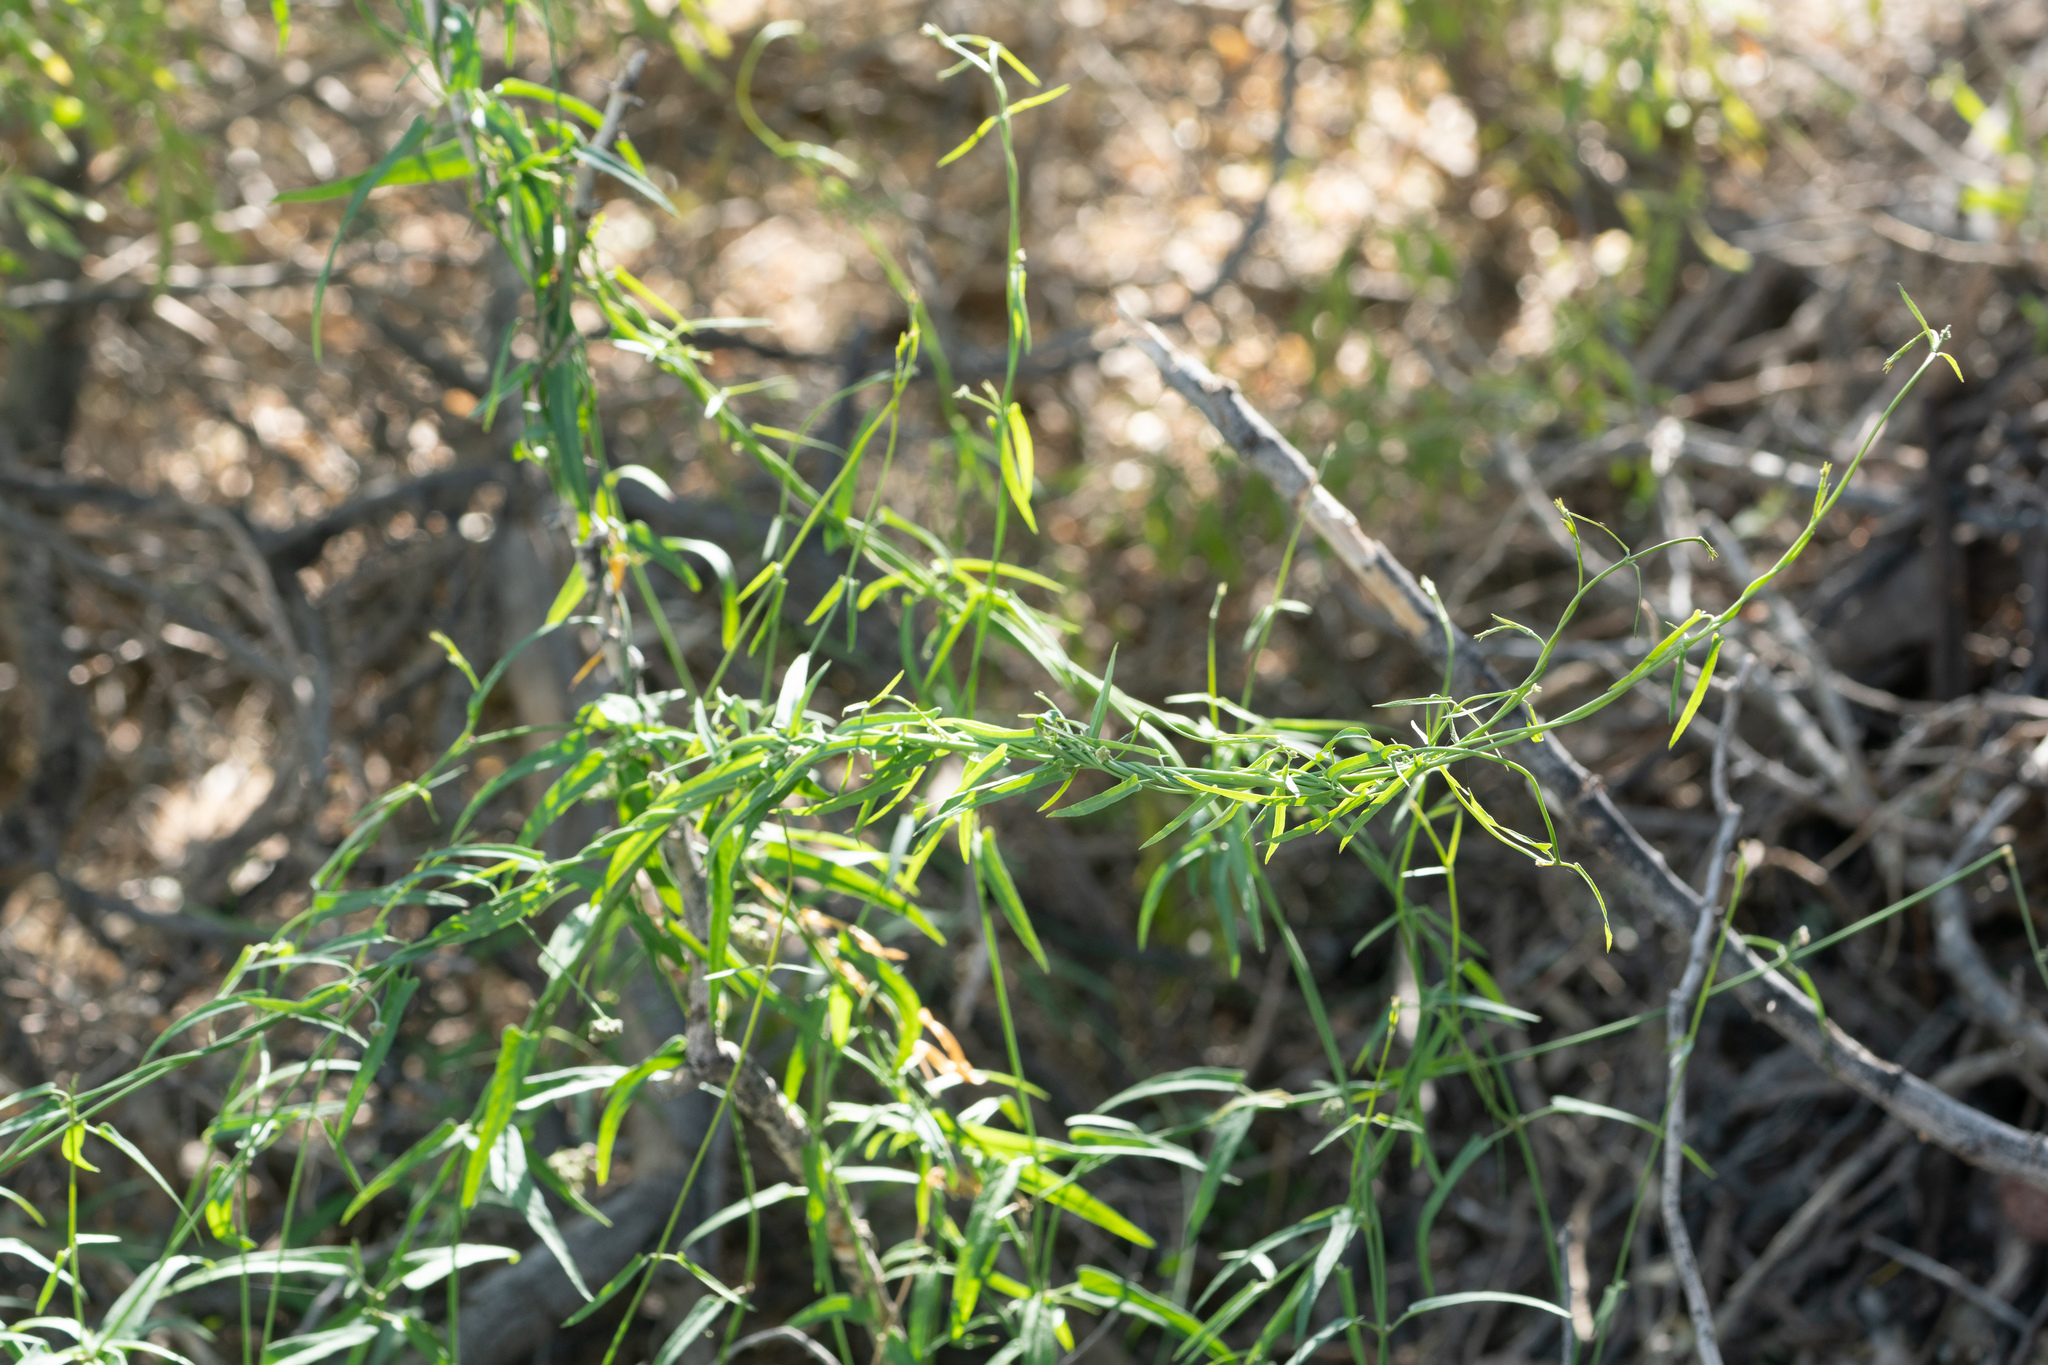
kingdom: Plantae
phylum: Tracheophyta
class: Magnoliopsida
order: Gentianales
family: Apocynaceae
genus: Funastrum
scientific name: Funastrum heterophyllum
